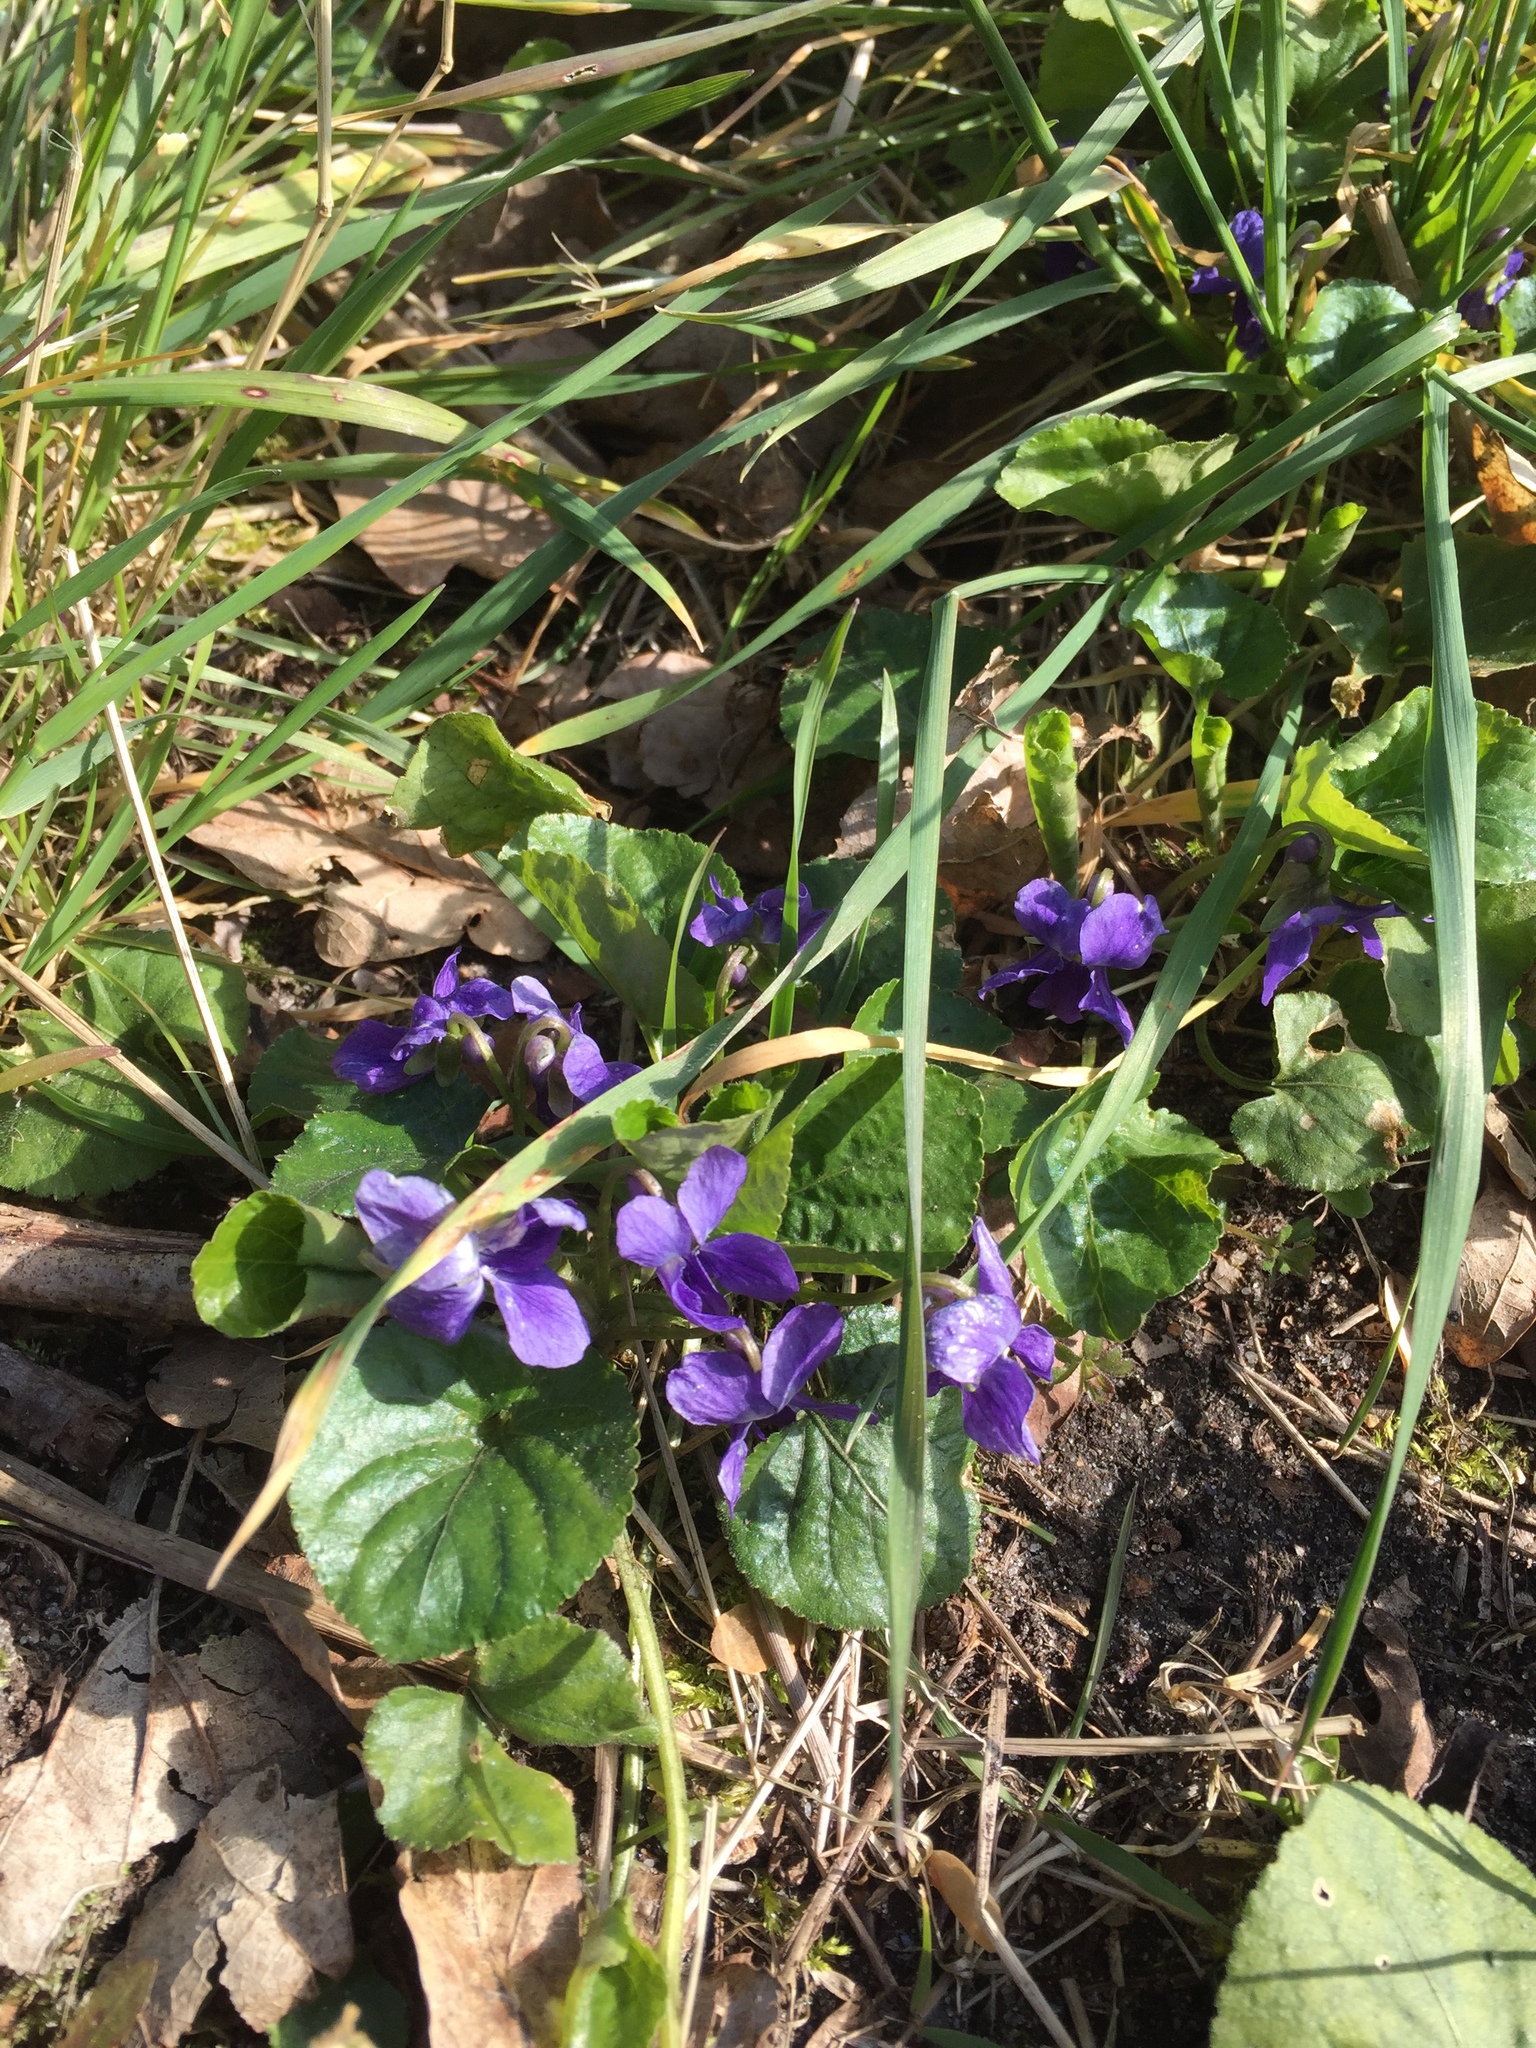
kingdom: Plantae
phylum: Tracheophyta
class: Magnoliopsida
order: Malpighiales
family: Violaceae
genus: Viola
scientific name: Viola odorata
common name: Sweet violet
